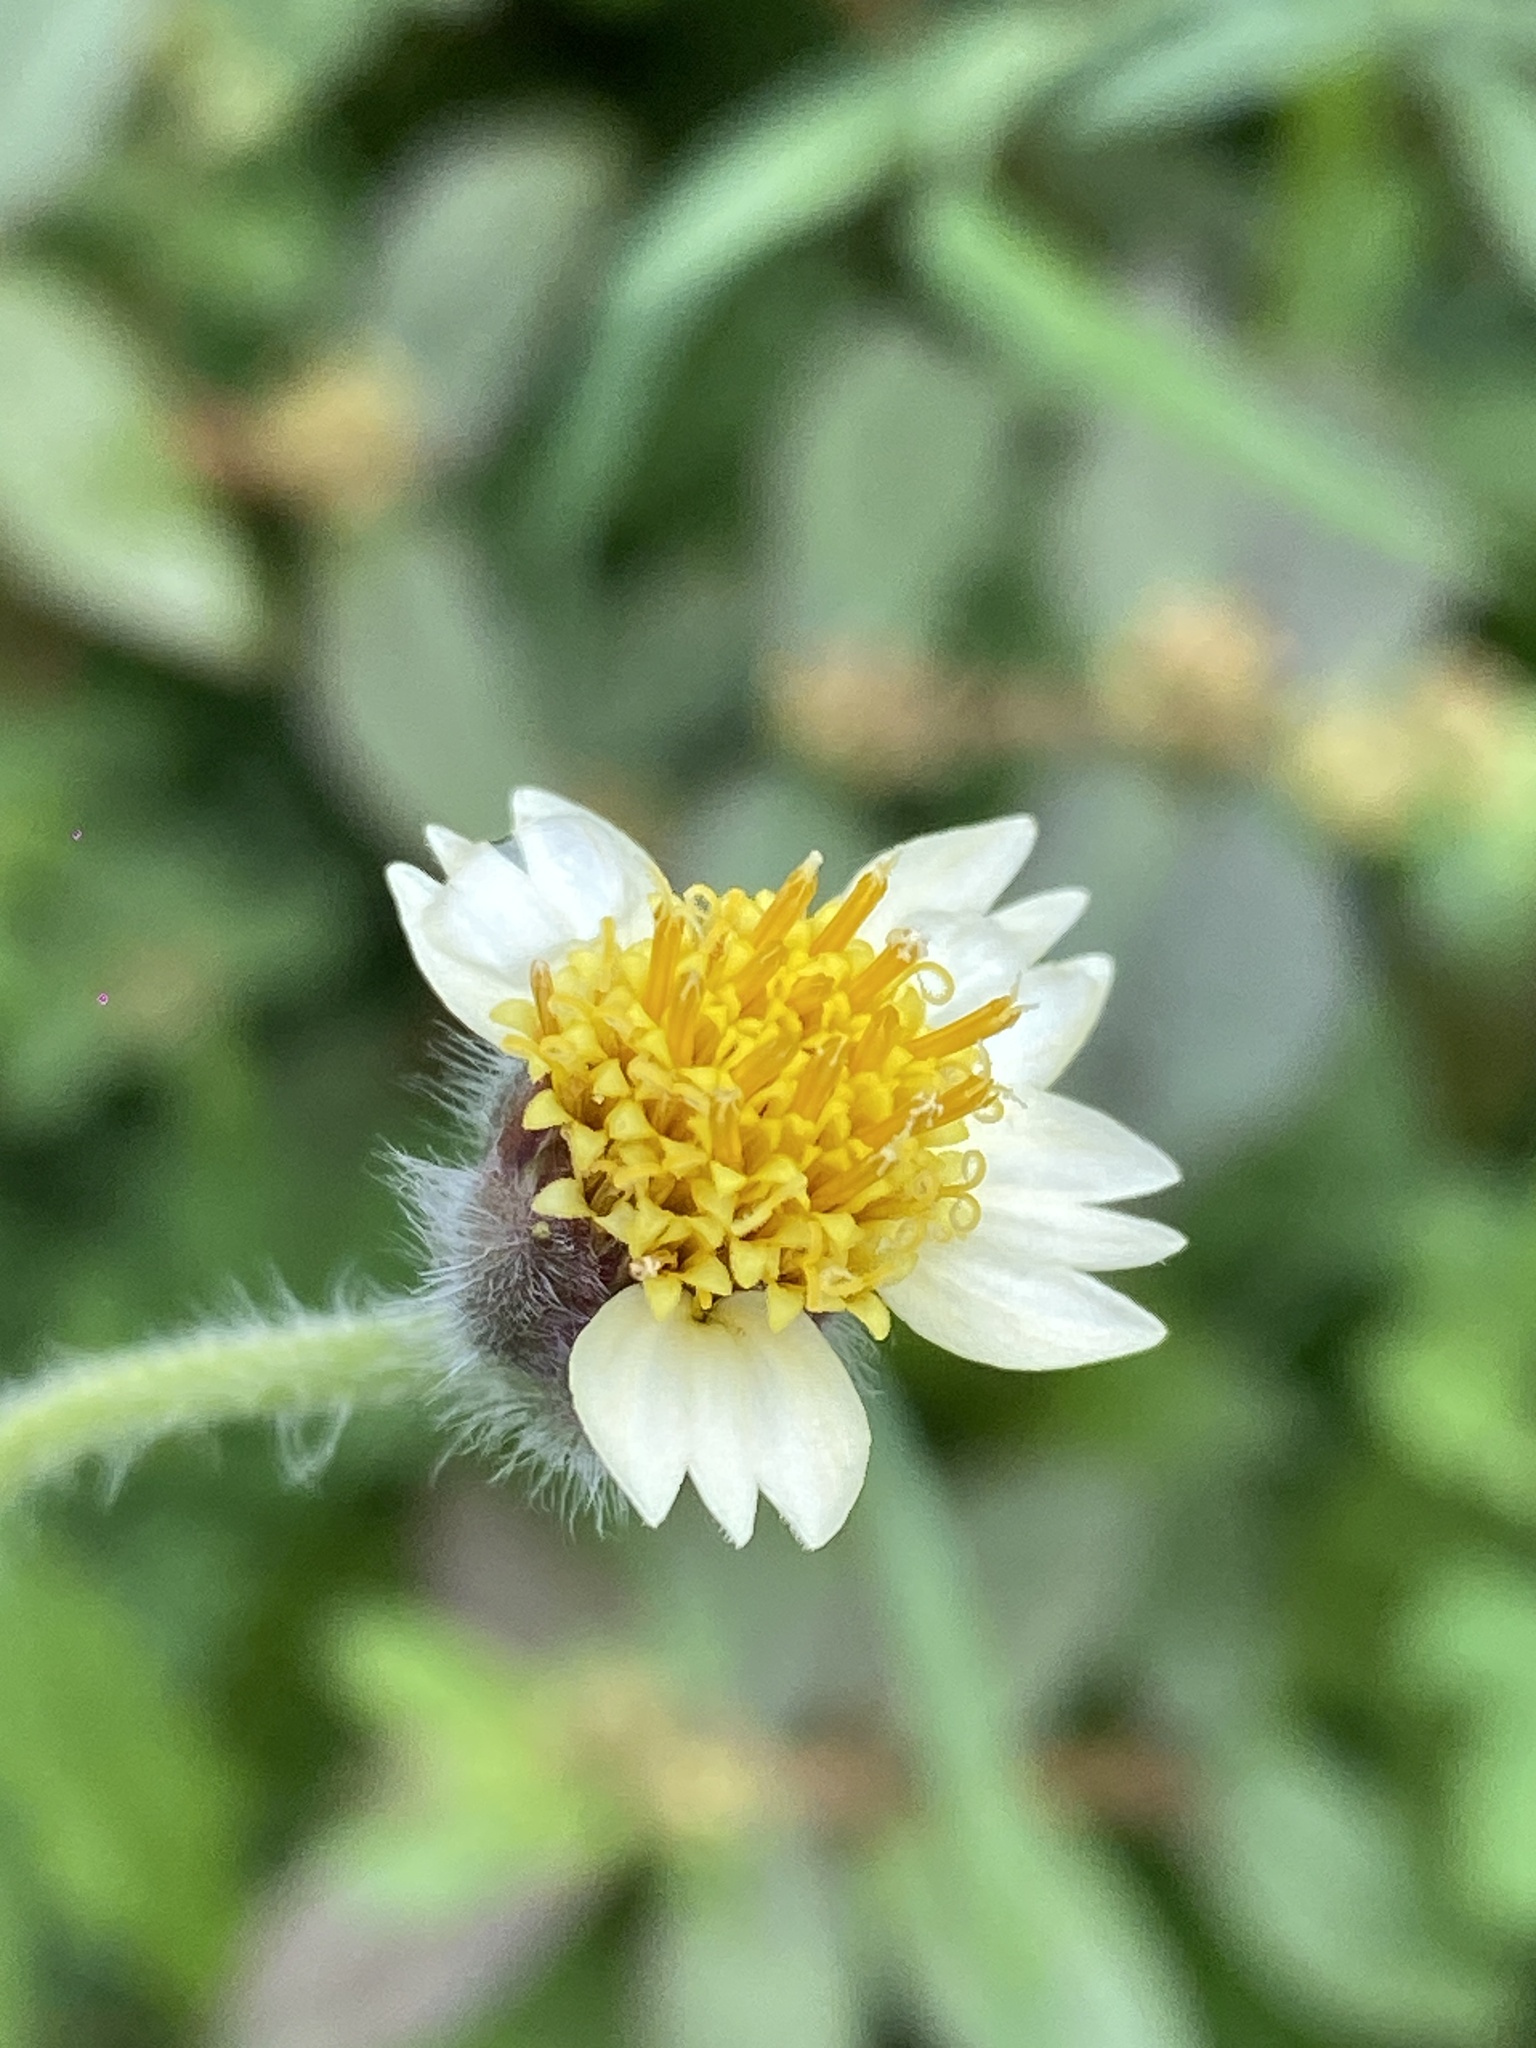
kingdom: Plantae
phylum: Tracheophyta
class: Magnoliopsida
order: Asterales
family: Asteraceae
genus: Tridax
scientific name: Tridax procumbens
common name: Coatbuttons
